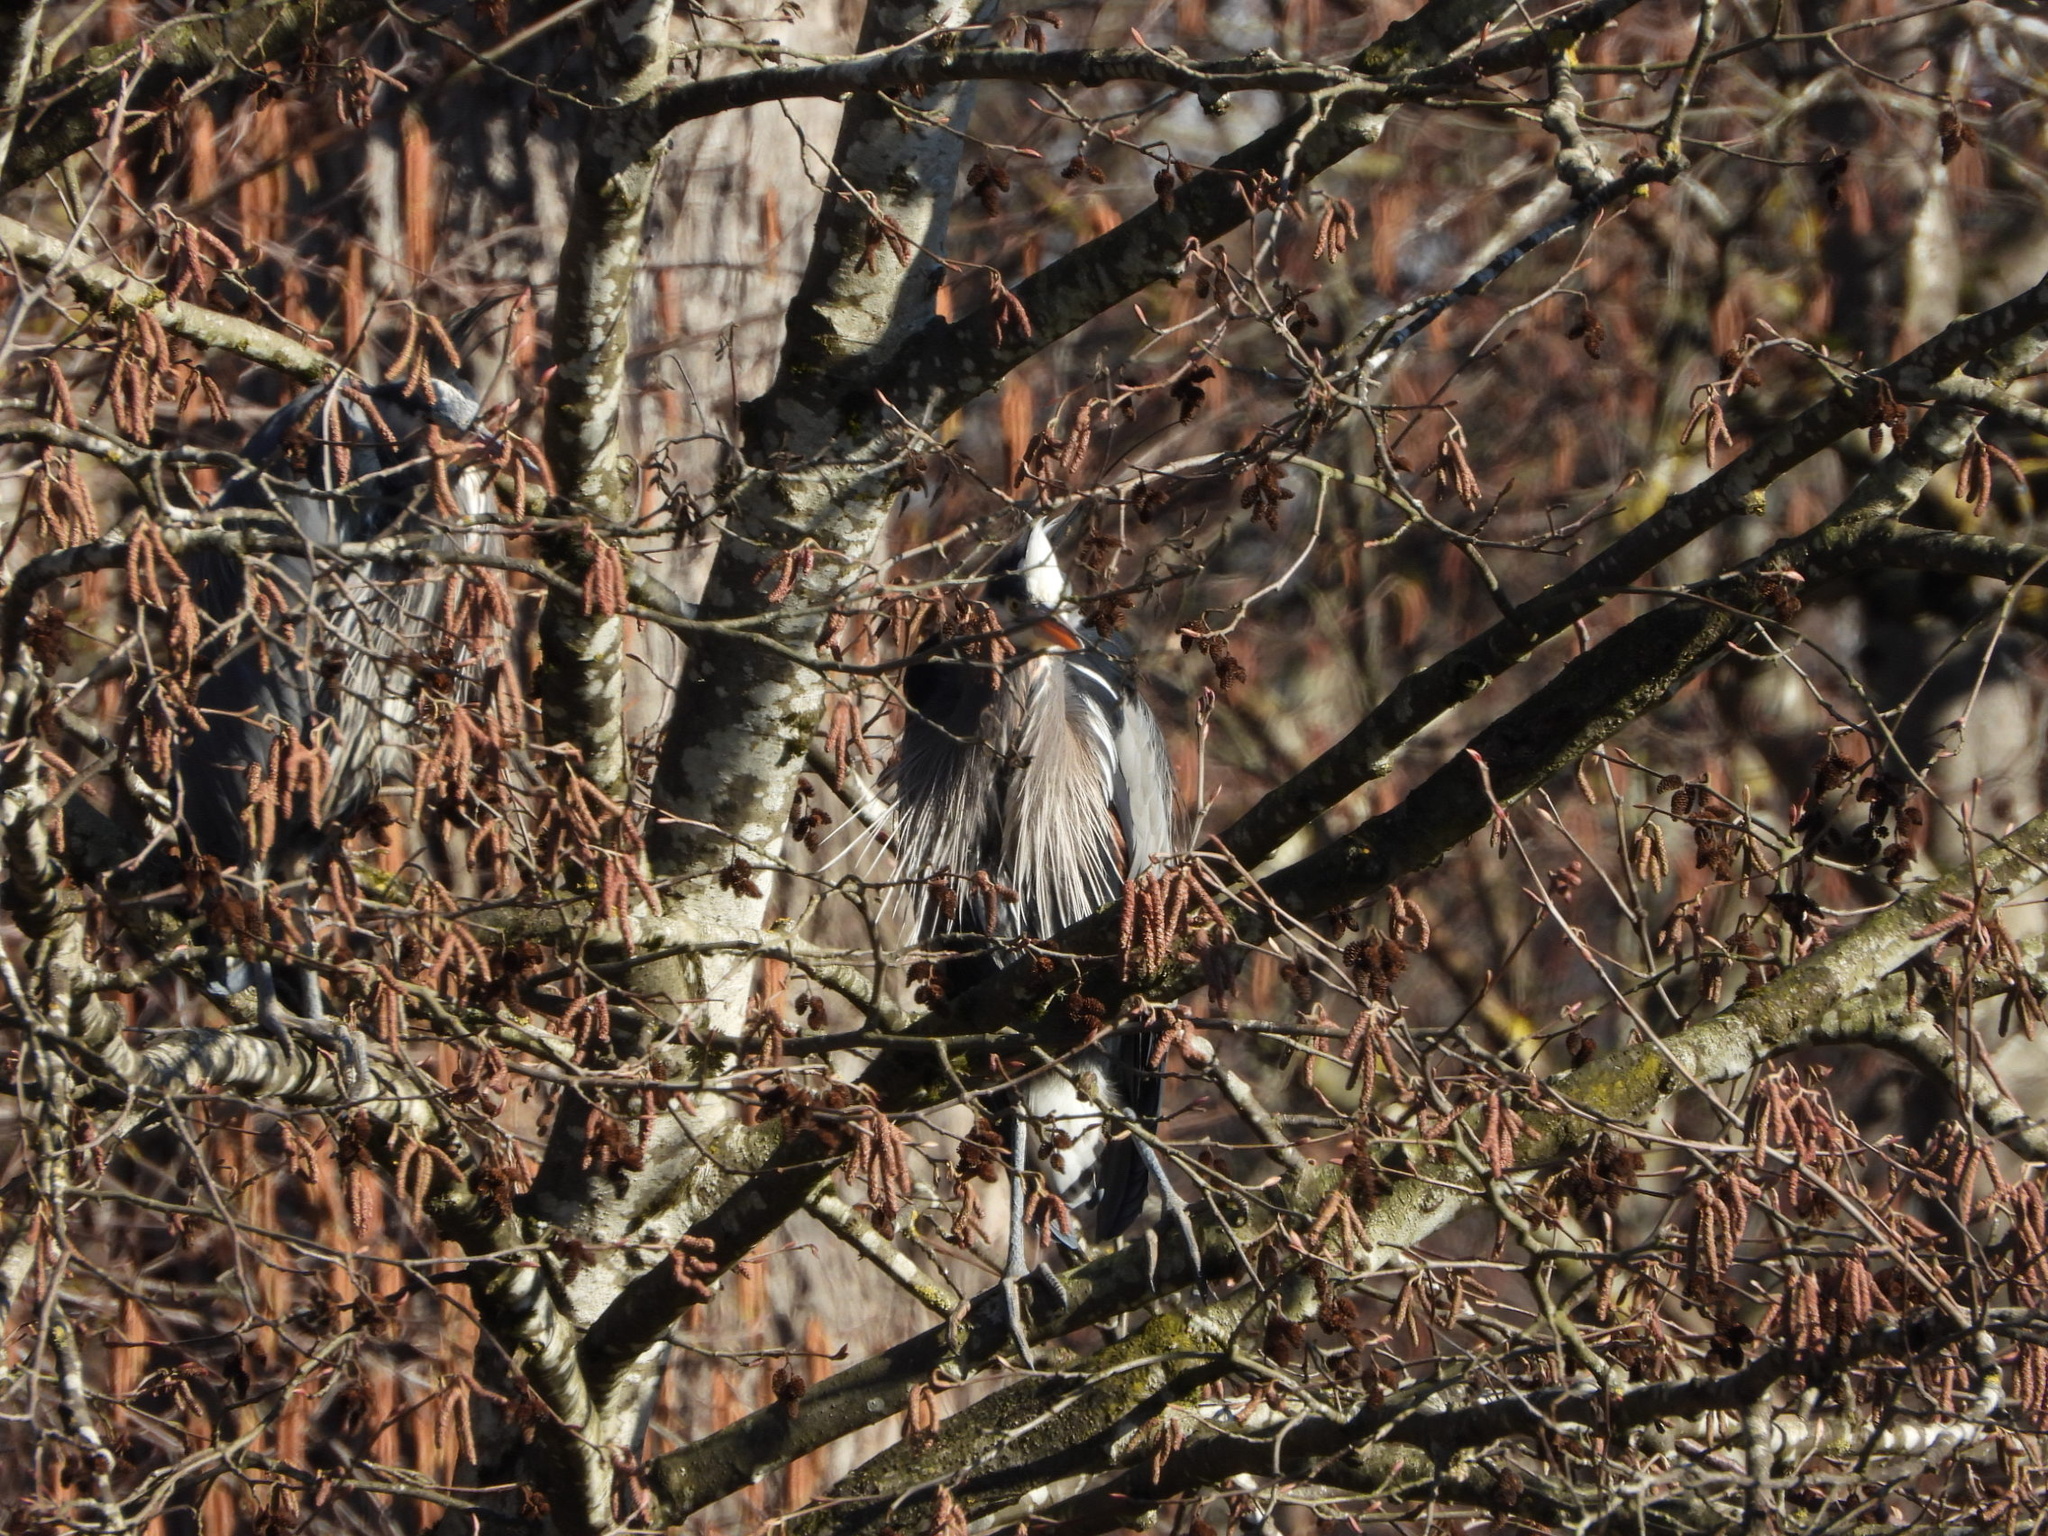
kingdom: Animalia
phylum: Chordata
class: Aves
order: Pelecaniformes
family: Ardeidae
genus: Ardea
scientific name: Ardea herodias
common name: Great blue heron
